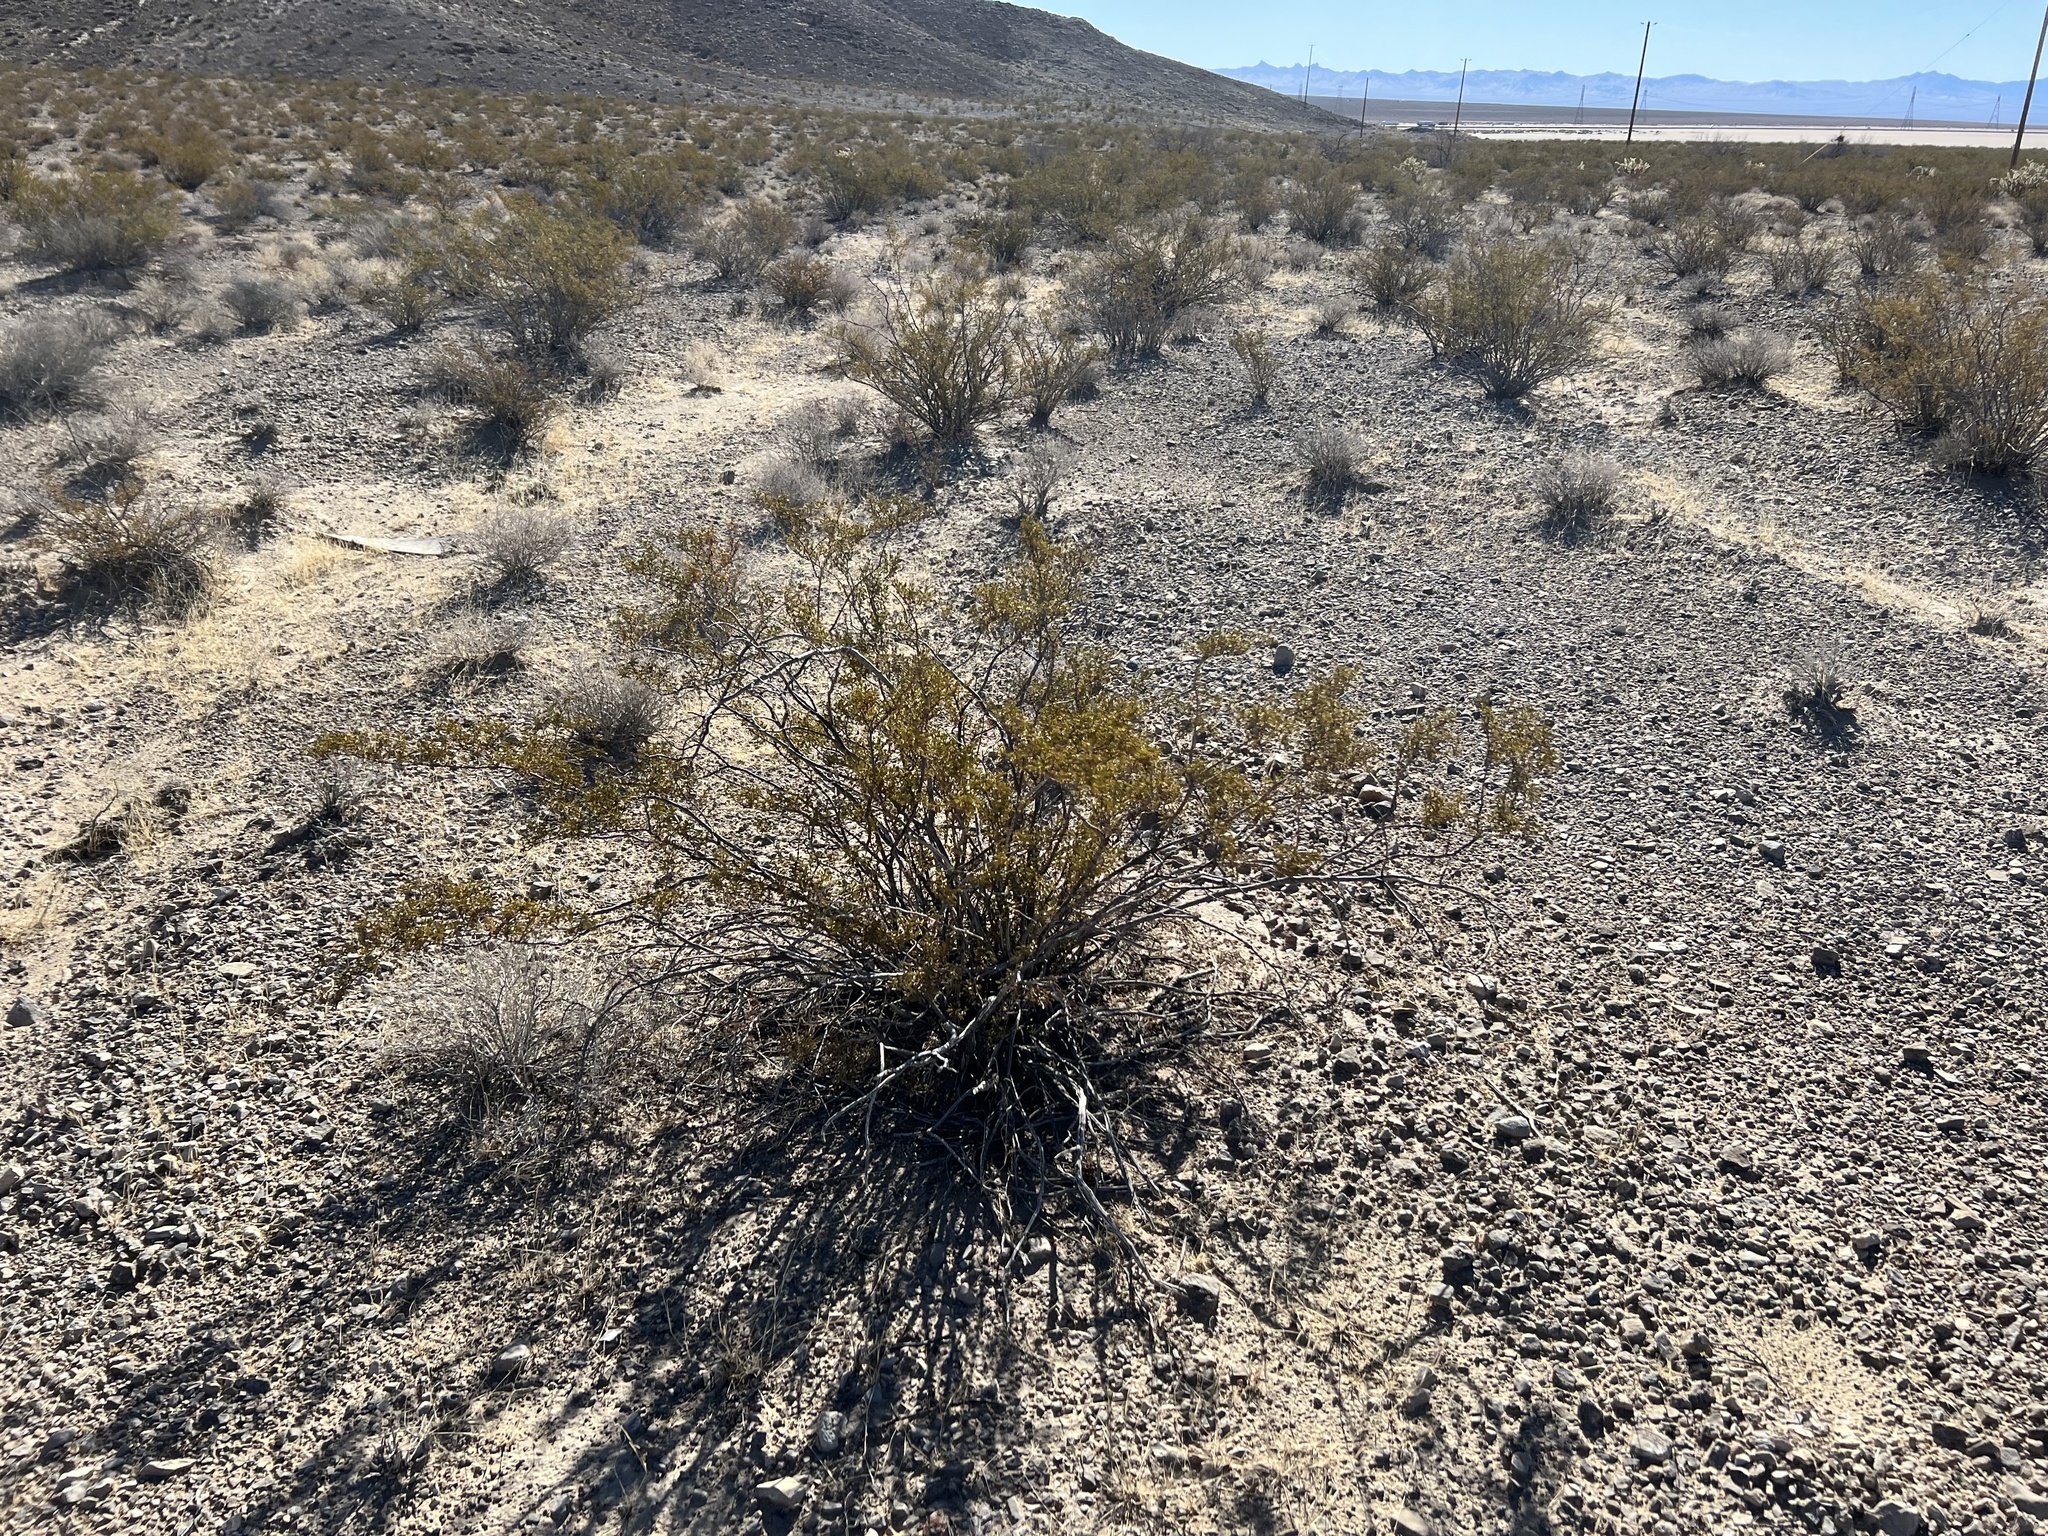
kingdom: Plantae
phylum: Tracheophyta
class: Magnoliopsida
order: Zygophyllales
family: Zygophyllaceae
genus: Larrea
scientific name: Larrea tridentata
